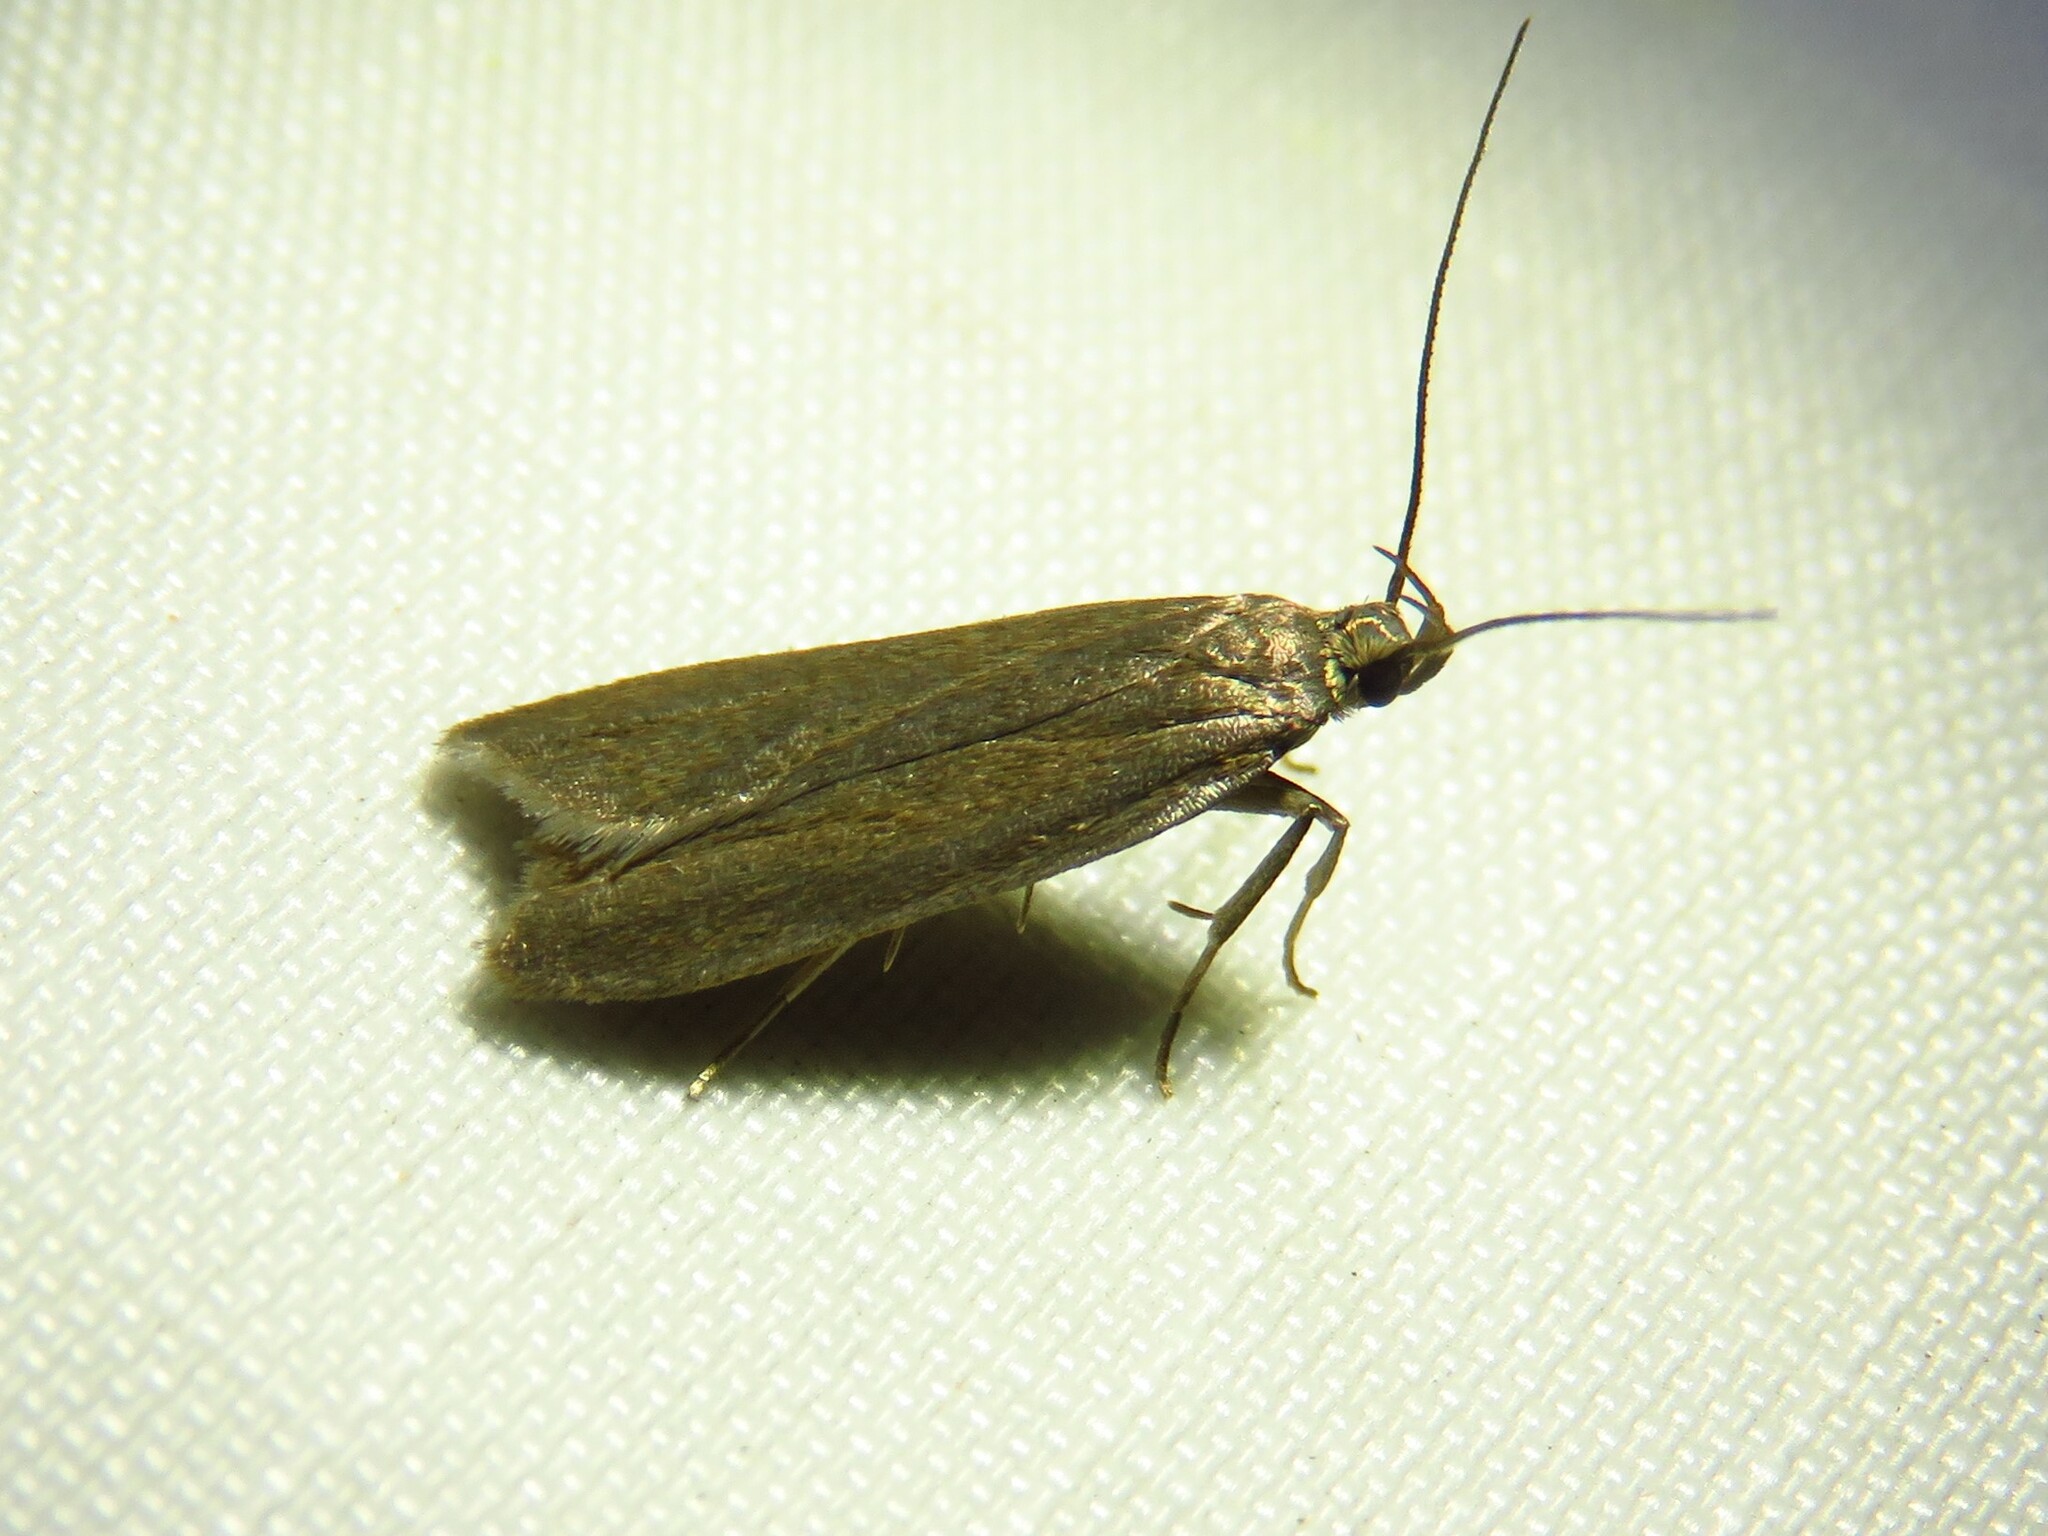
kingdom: Animalia
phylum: Arthropoda
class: Insecta
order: Lepidoptera
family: Gelechiidae
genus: Acompsia
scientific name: Acompsia cinerella
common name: Ash-coloured sober
